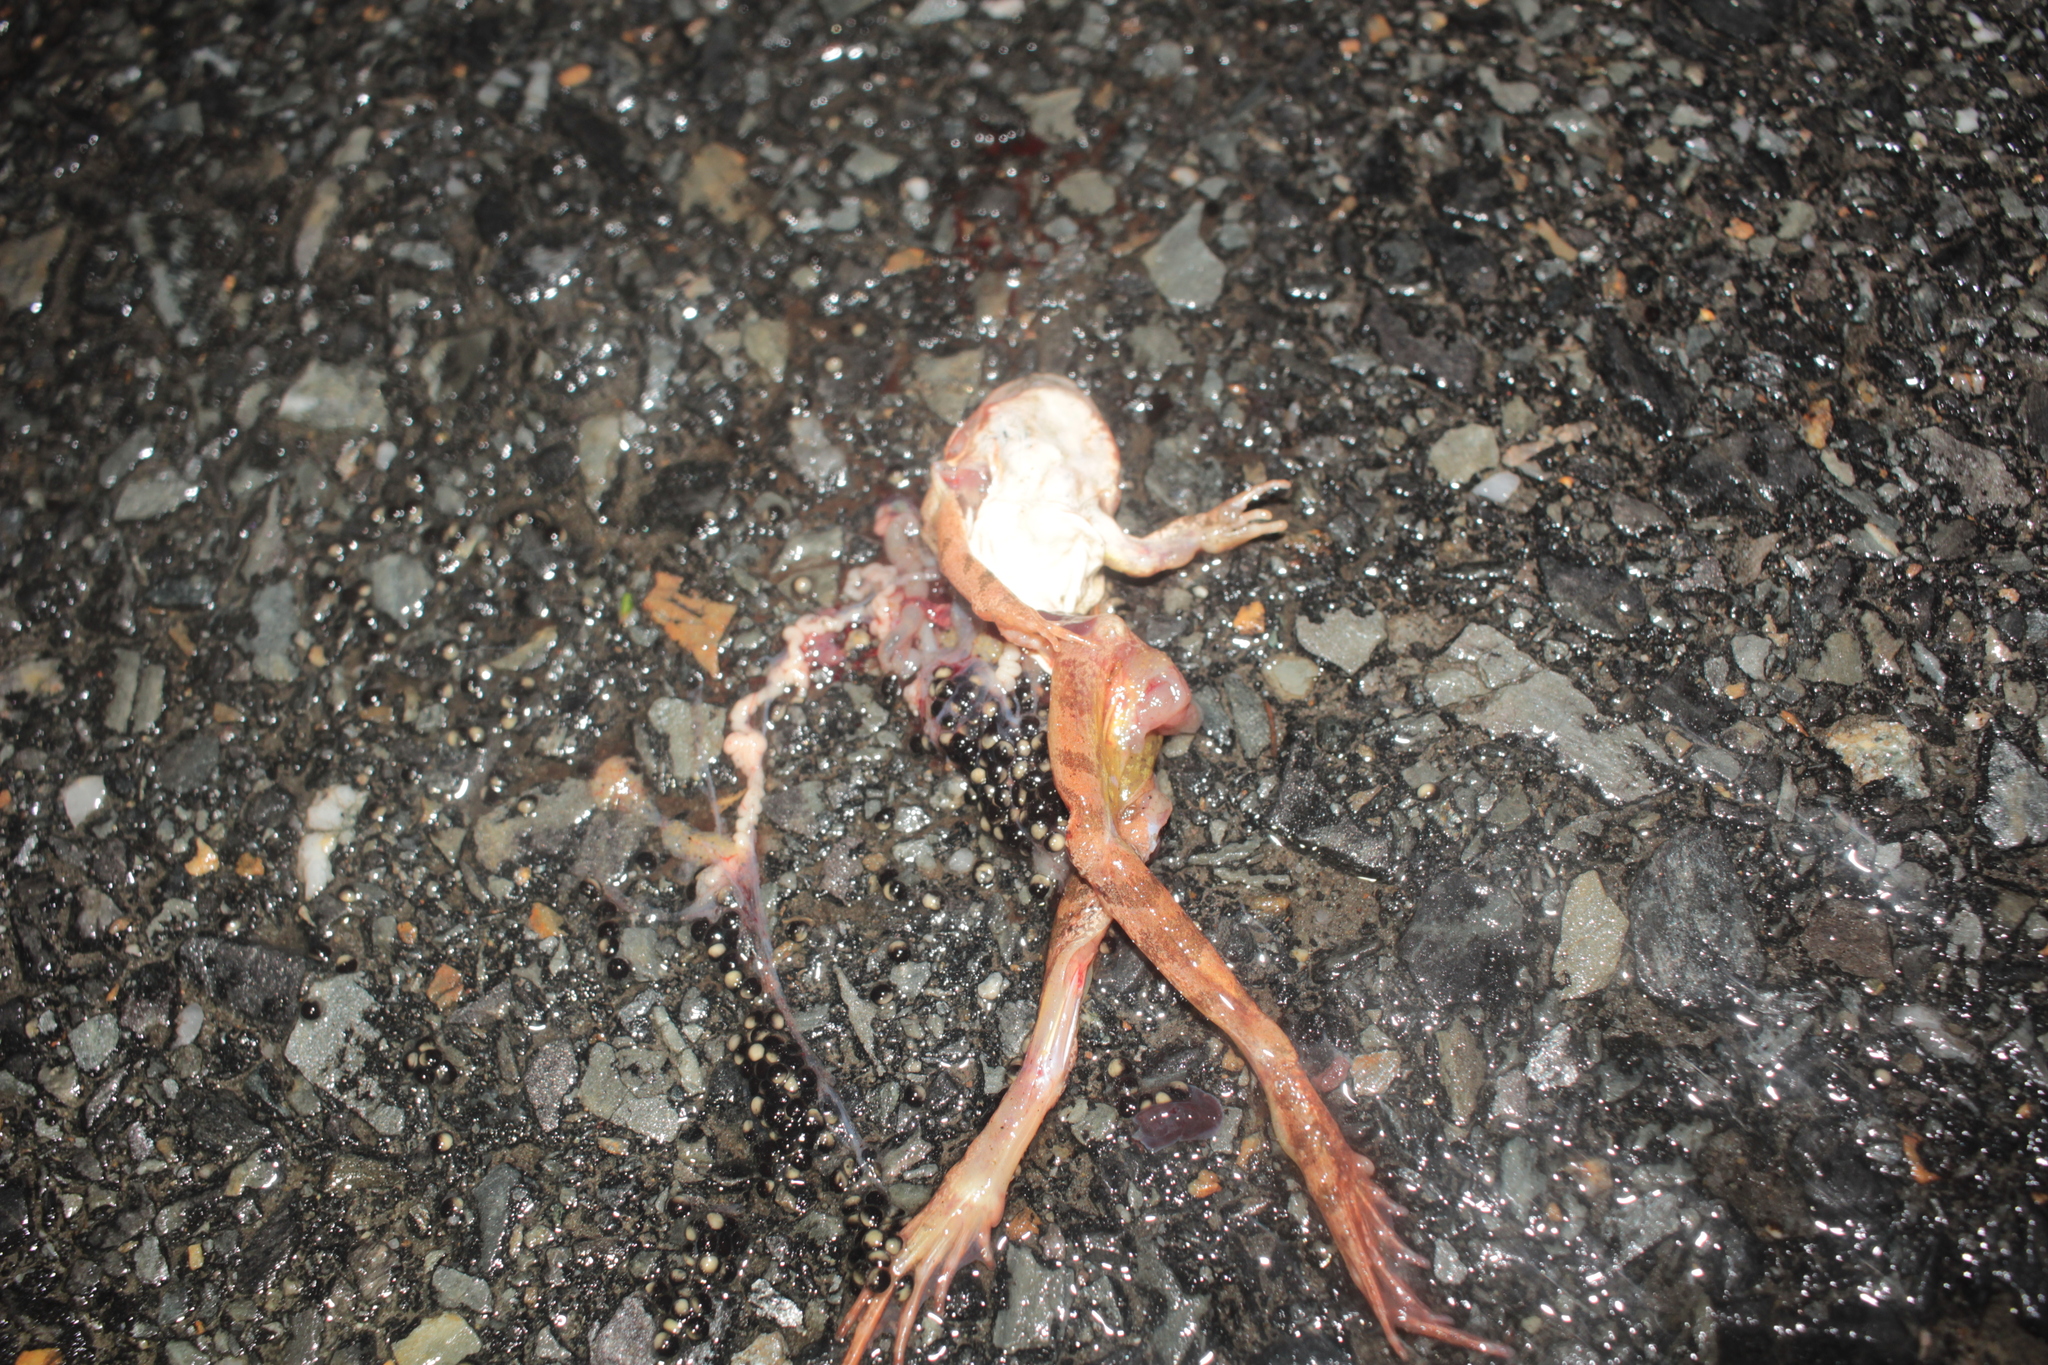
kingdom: Animalia
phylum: Chordata
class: Amphibia
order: Anura
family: Ranidae
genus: Lithobates
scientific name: Lithobates sylvaticus
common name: Wood frog
